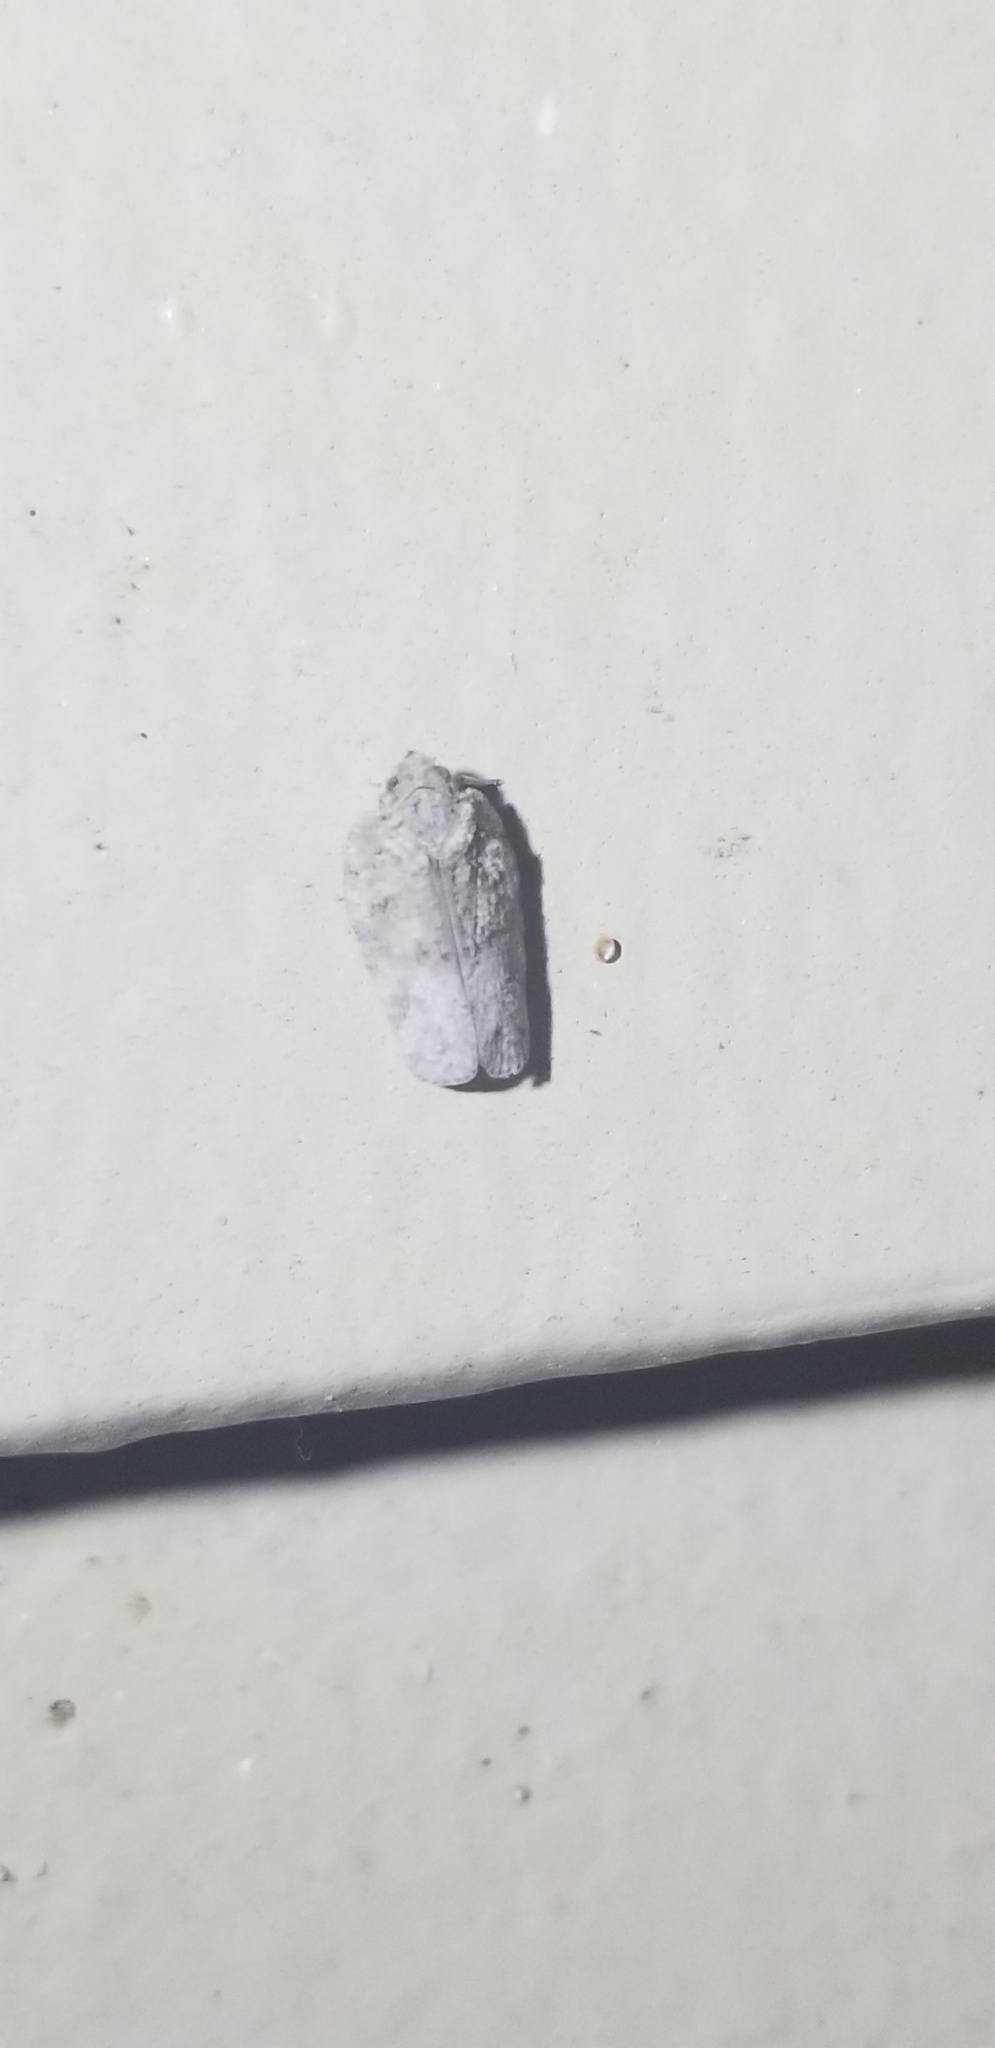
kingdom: Animalia
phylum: Arthropoda
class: Insecta
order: Hemiptera
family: Flatidae
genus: Flatoidinus
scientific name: Flatoidinus punctatus
